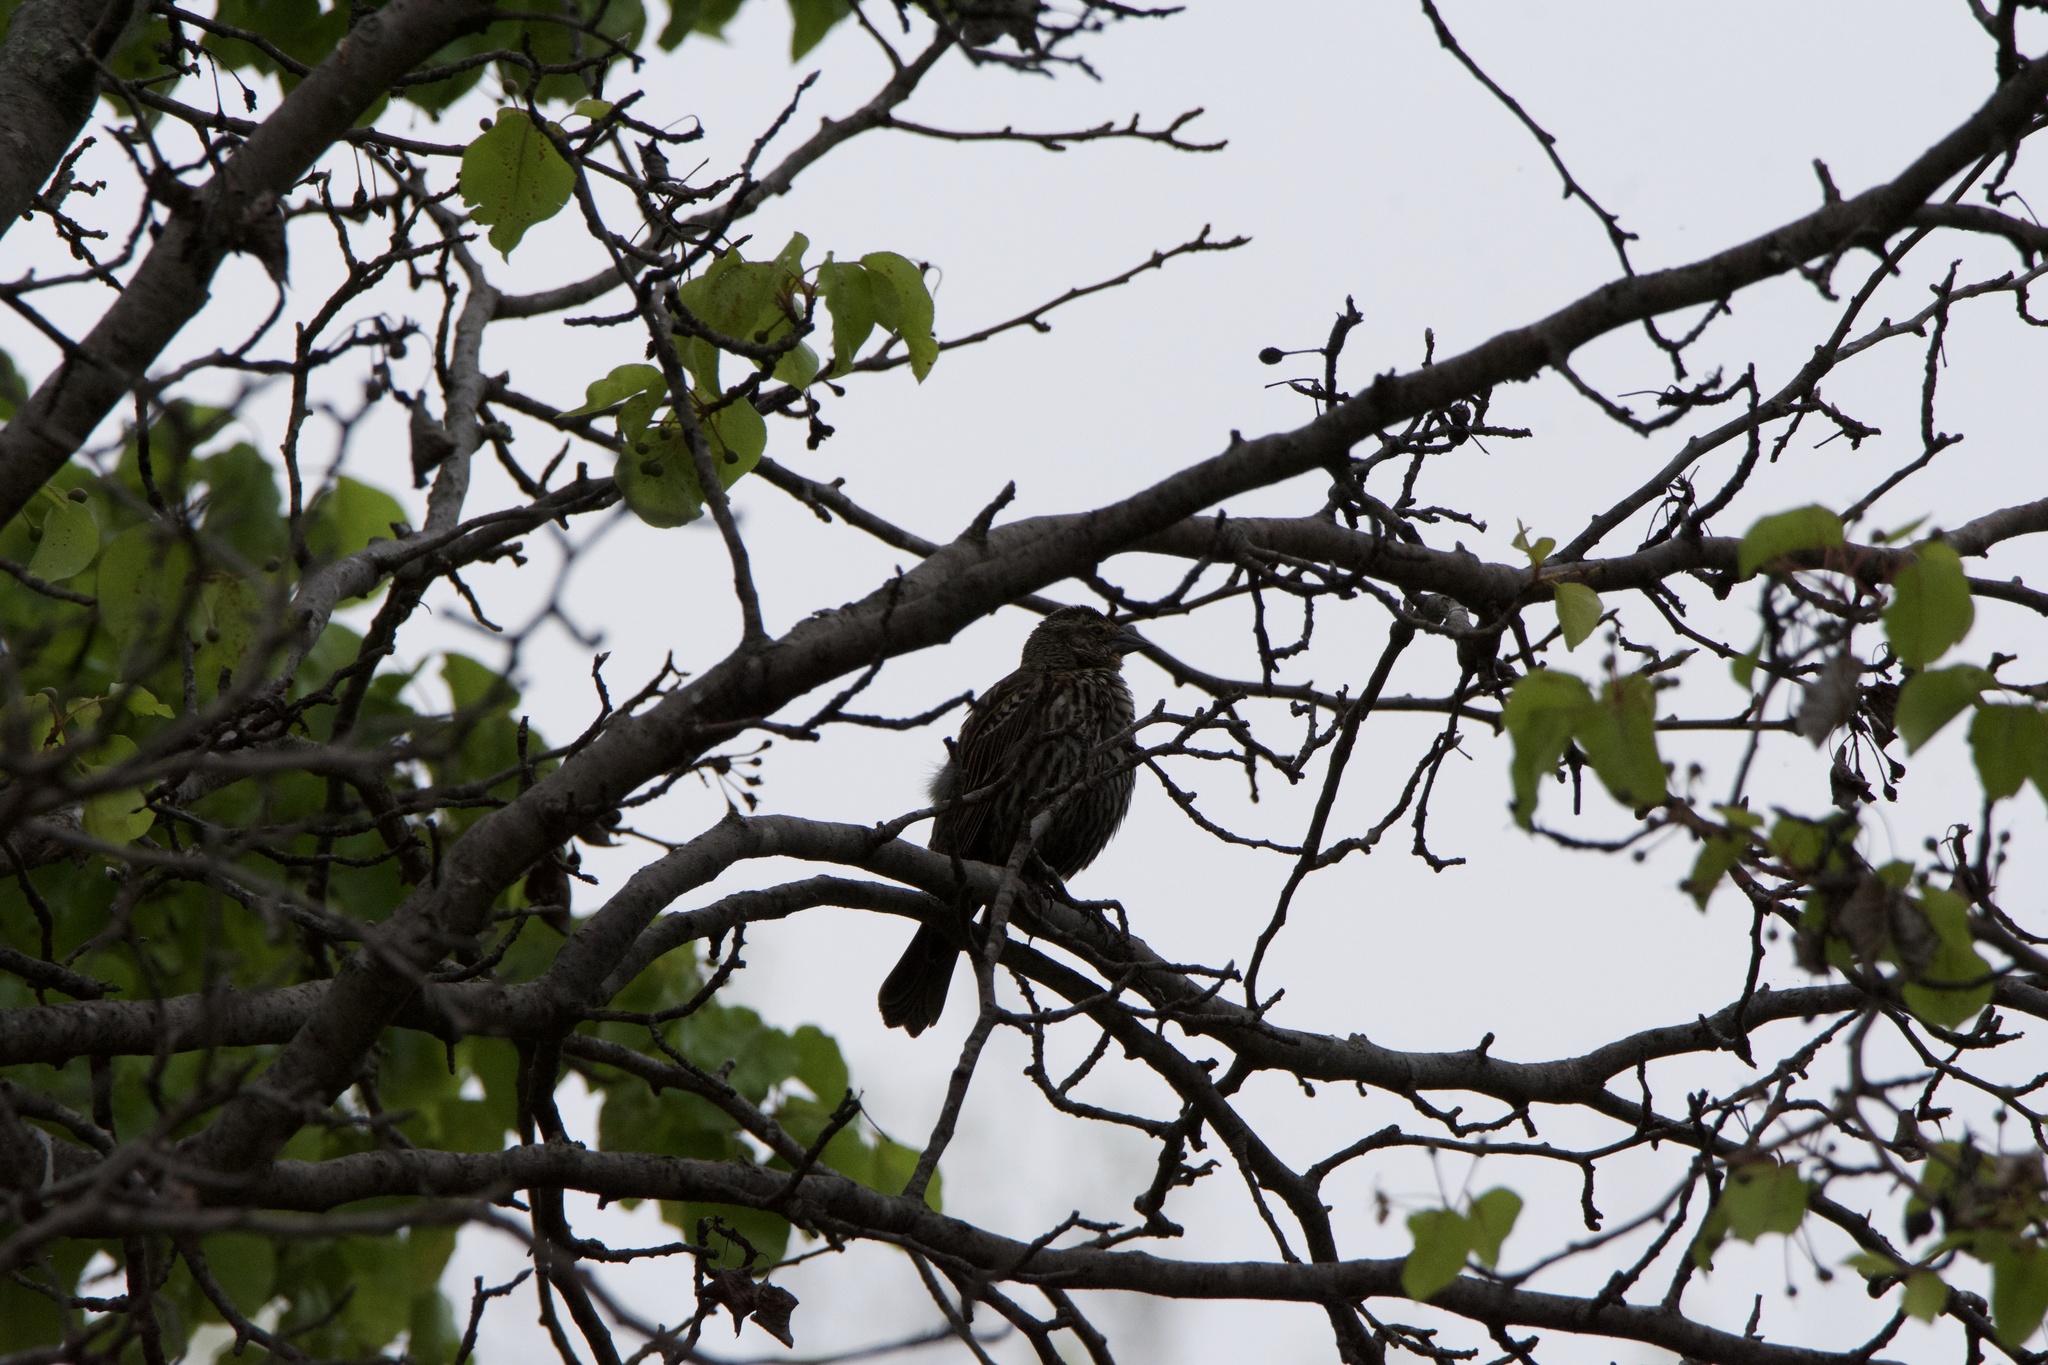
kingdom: Animalia
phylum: Chordata
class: Aves
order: Passeriformes
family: Icteridae
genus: Agelaius
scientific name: Agelaius phoeniceus
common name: Red-winged blackbird
